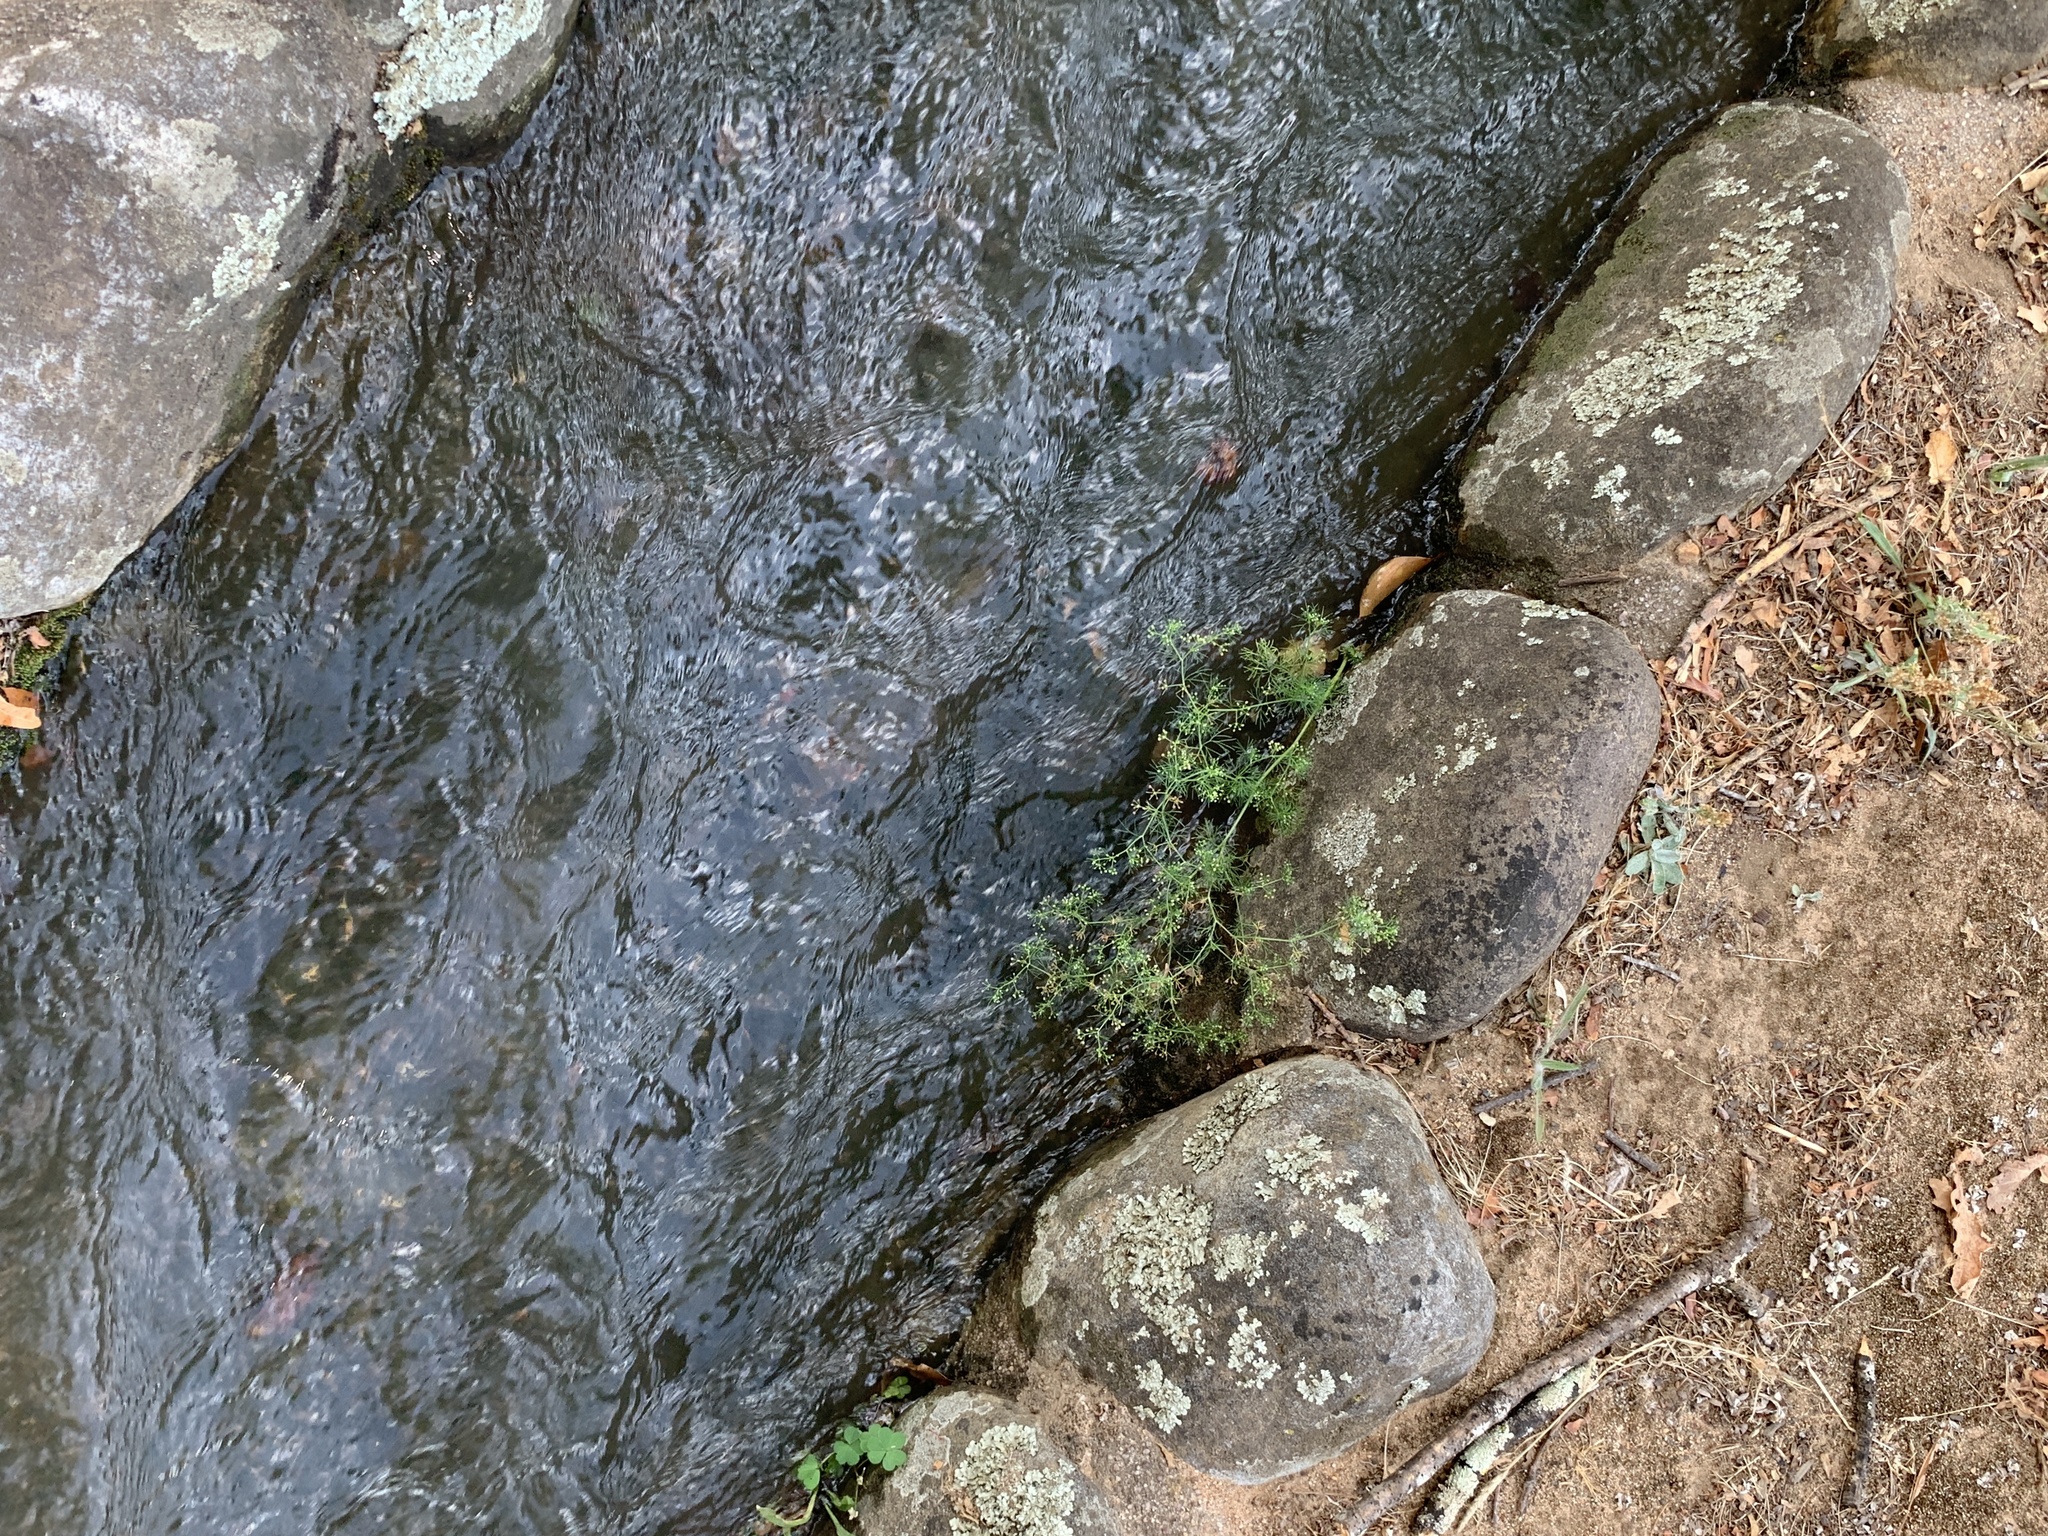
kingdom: Plantae
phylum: Tracheophyta
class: Magnoliopsida
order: Apiales
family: Apiaceae
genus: Cyclospermum
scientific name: Cyclospermum leptophyllum
